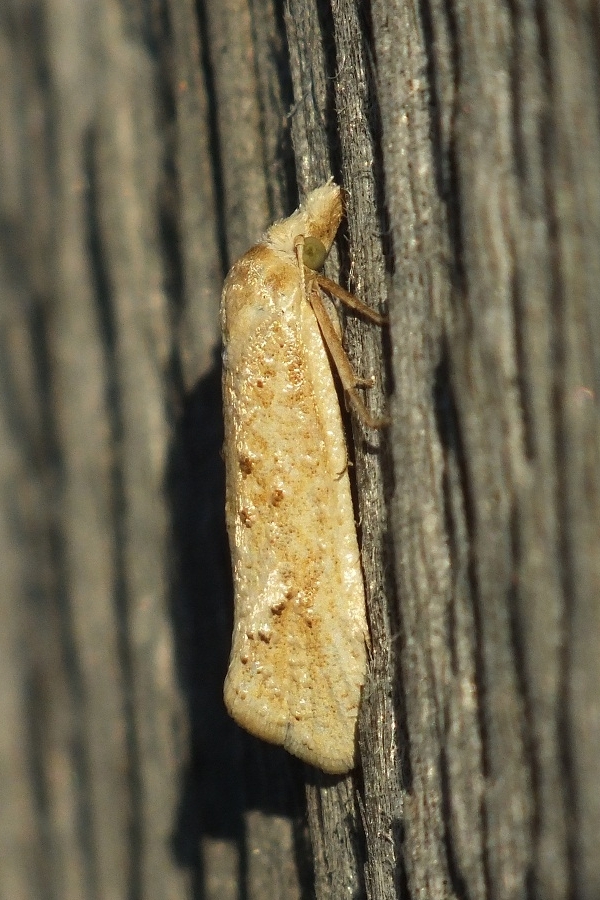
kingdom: Animalia
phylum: Arthropoda
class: Insecta
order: Lepidoptera
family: Tortricidae
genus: Cochylimorpha
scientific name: Cochylimorpha meridiana
